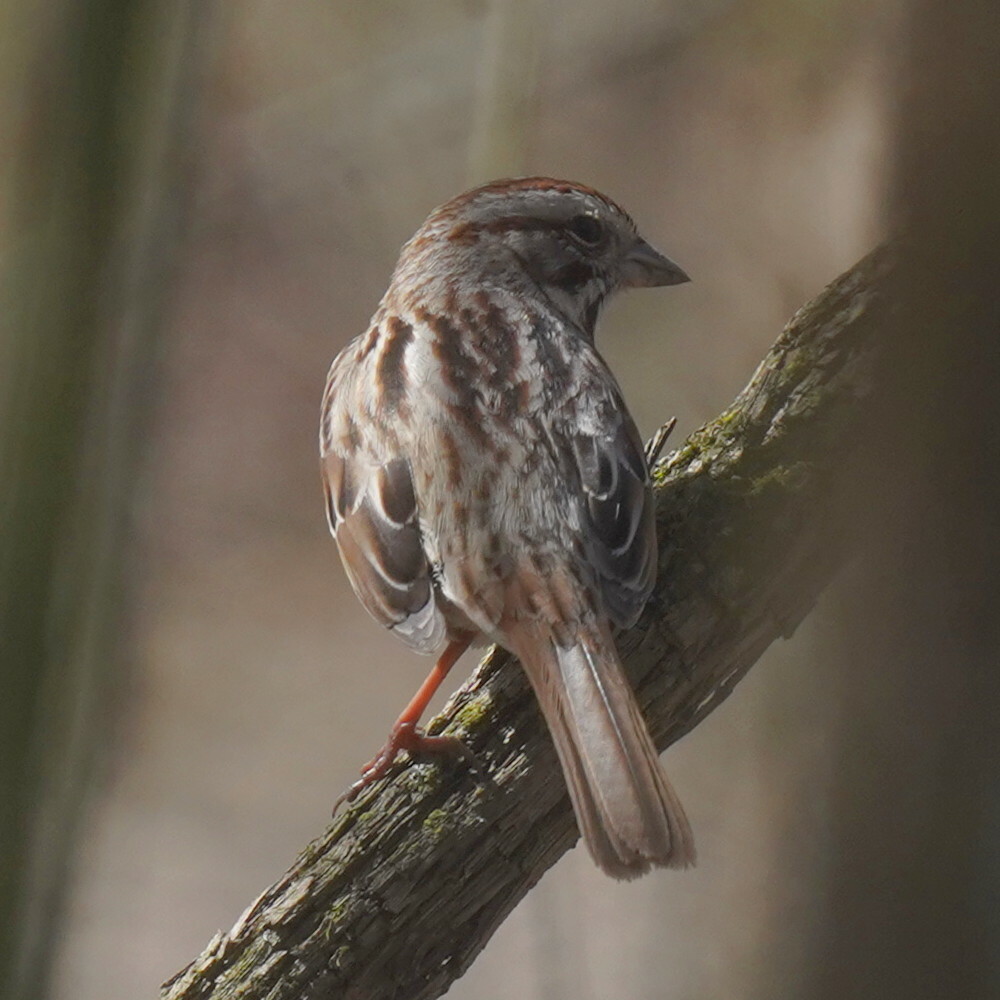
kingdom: Animalia
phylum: Chordata
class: Aves
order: Passeriformes
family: Passerellidae
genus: Melospiza
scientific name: Melospiza melodia
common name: Song sparrow
